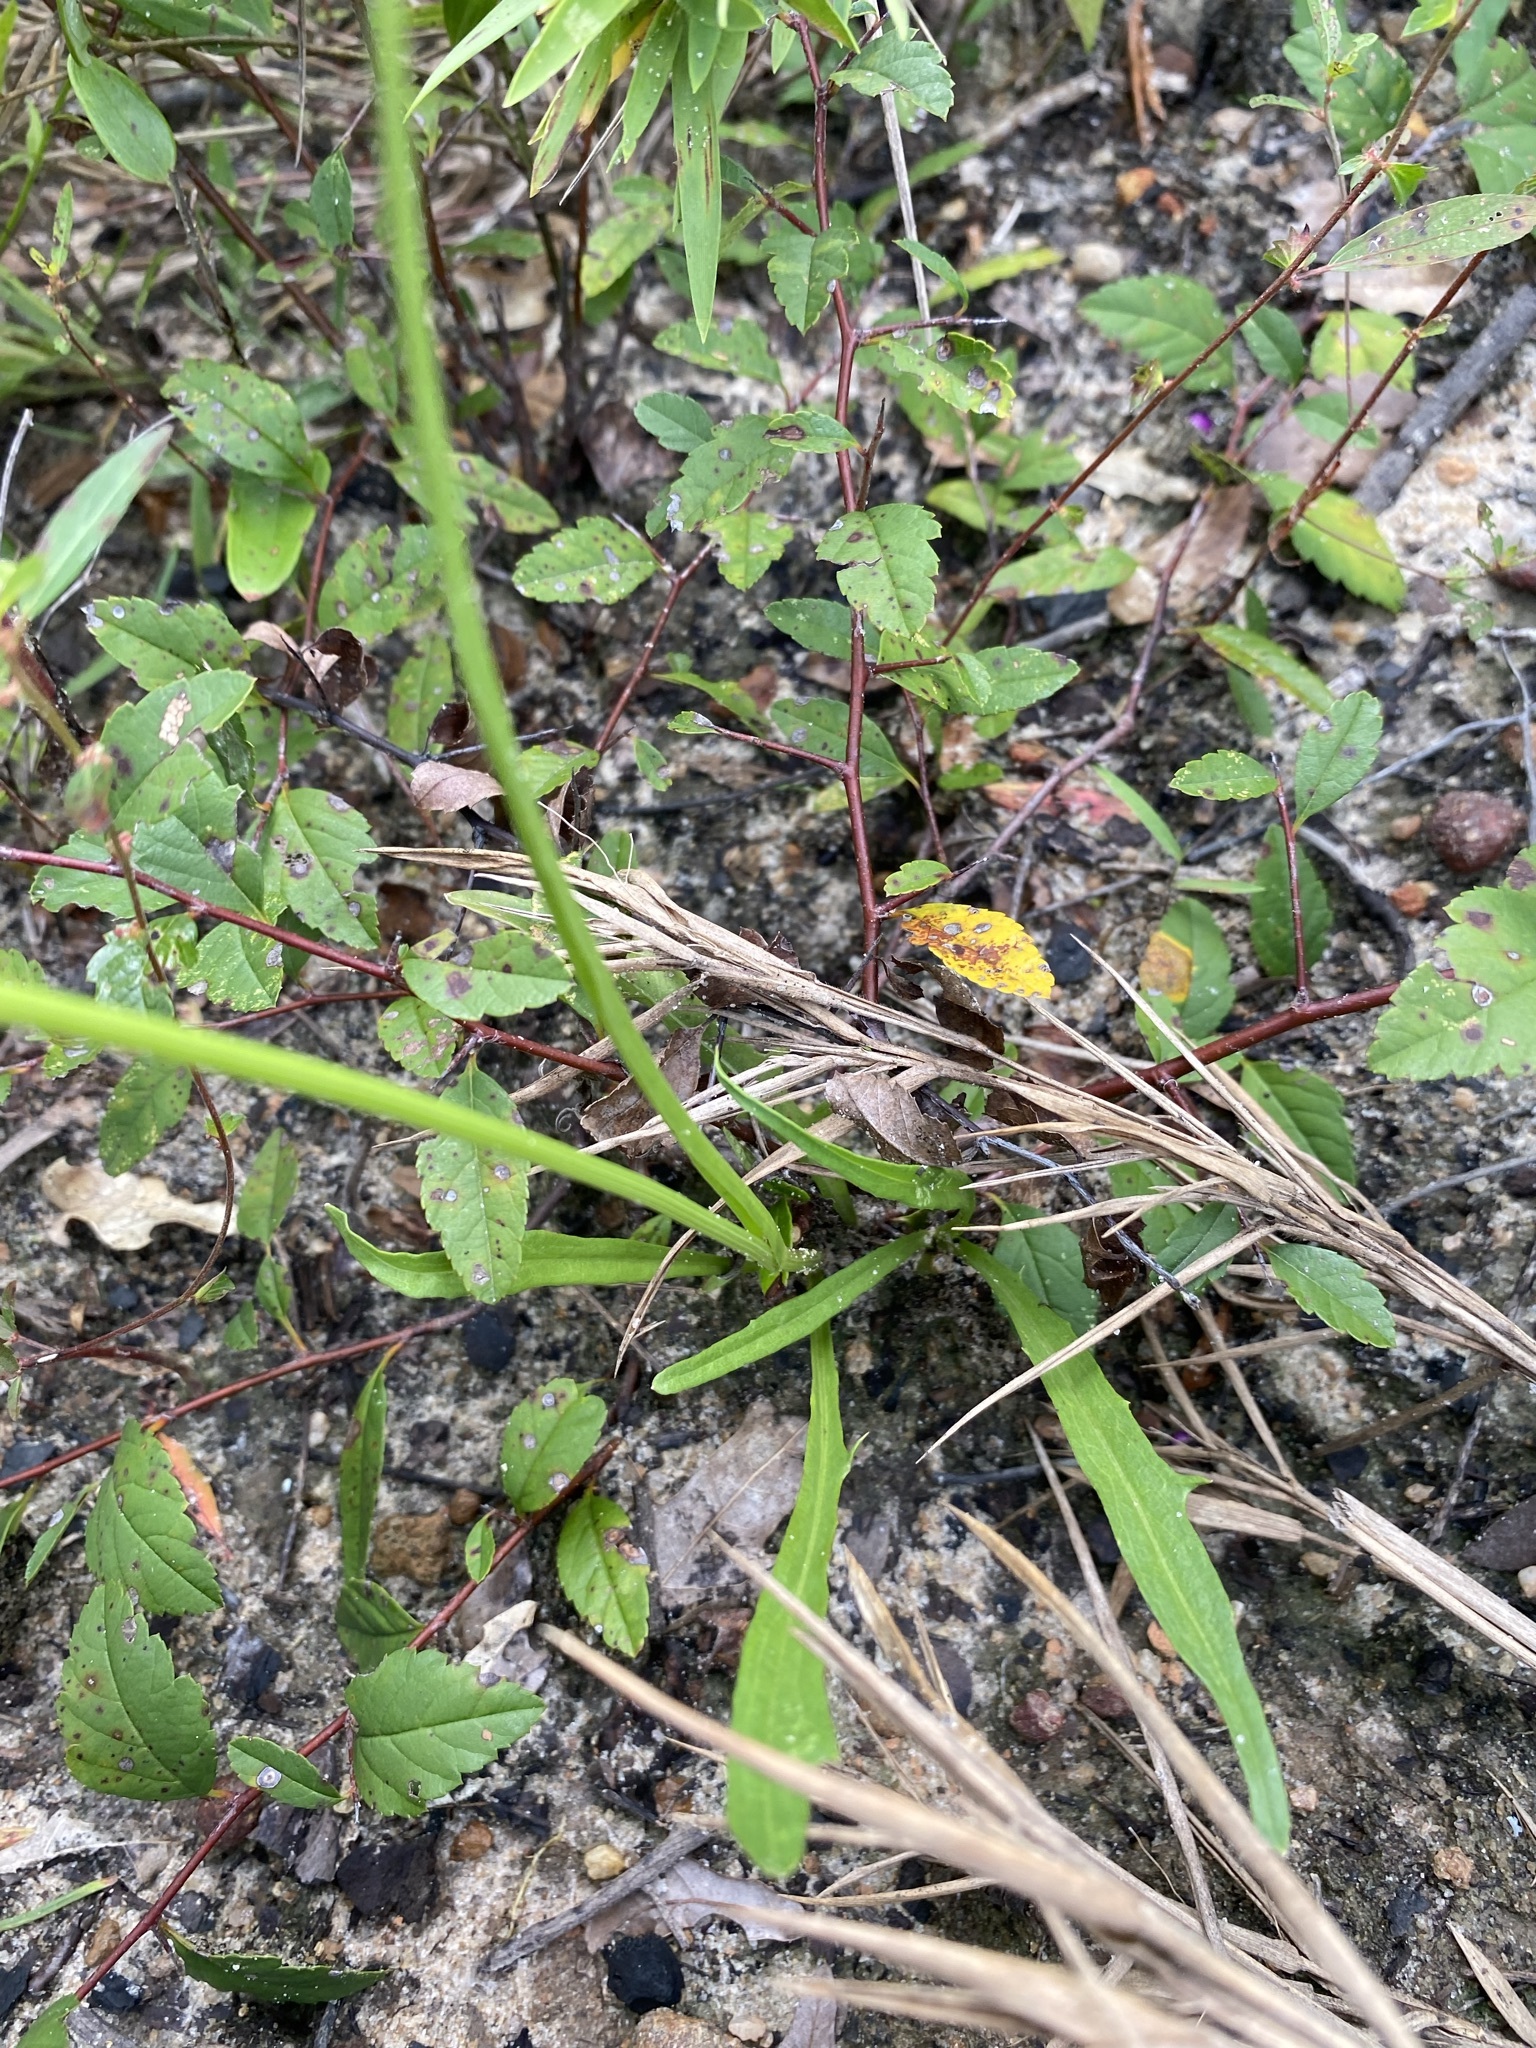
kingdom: Plantae
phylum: Tracheophyta
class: Magnoliopsida
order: Asterales
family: Asteraceae
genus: Pyrrhopappus
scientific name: Pyrrhopappus carolinianus
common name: Carolina desert-chicory
